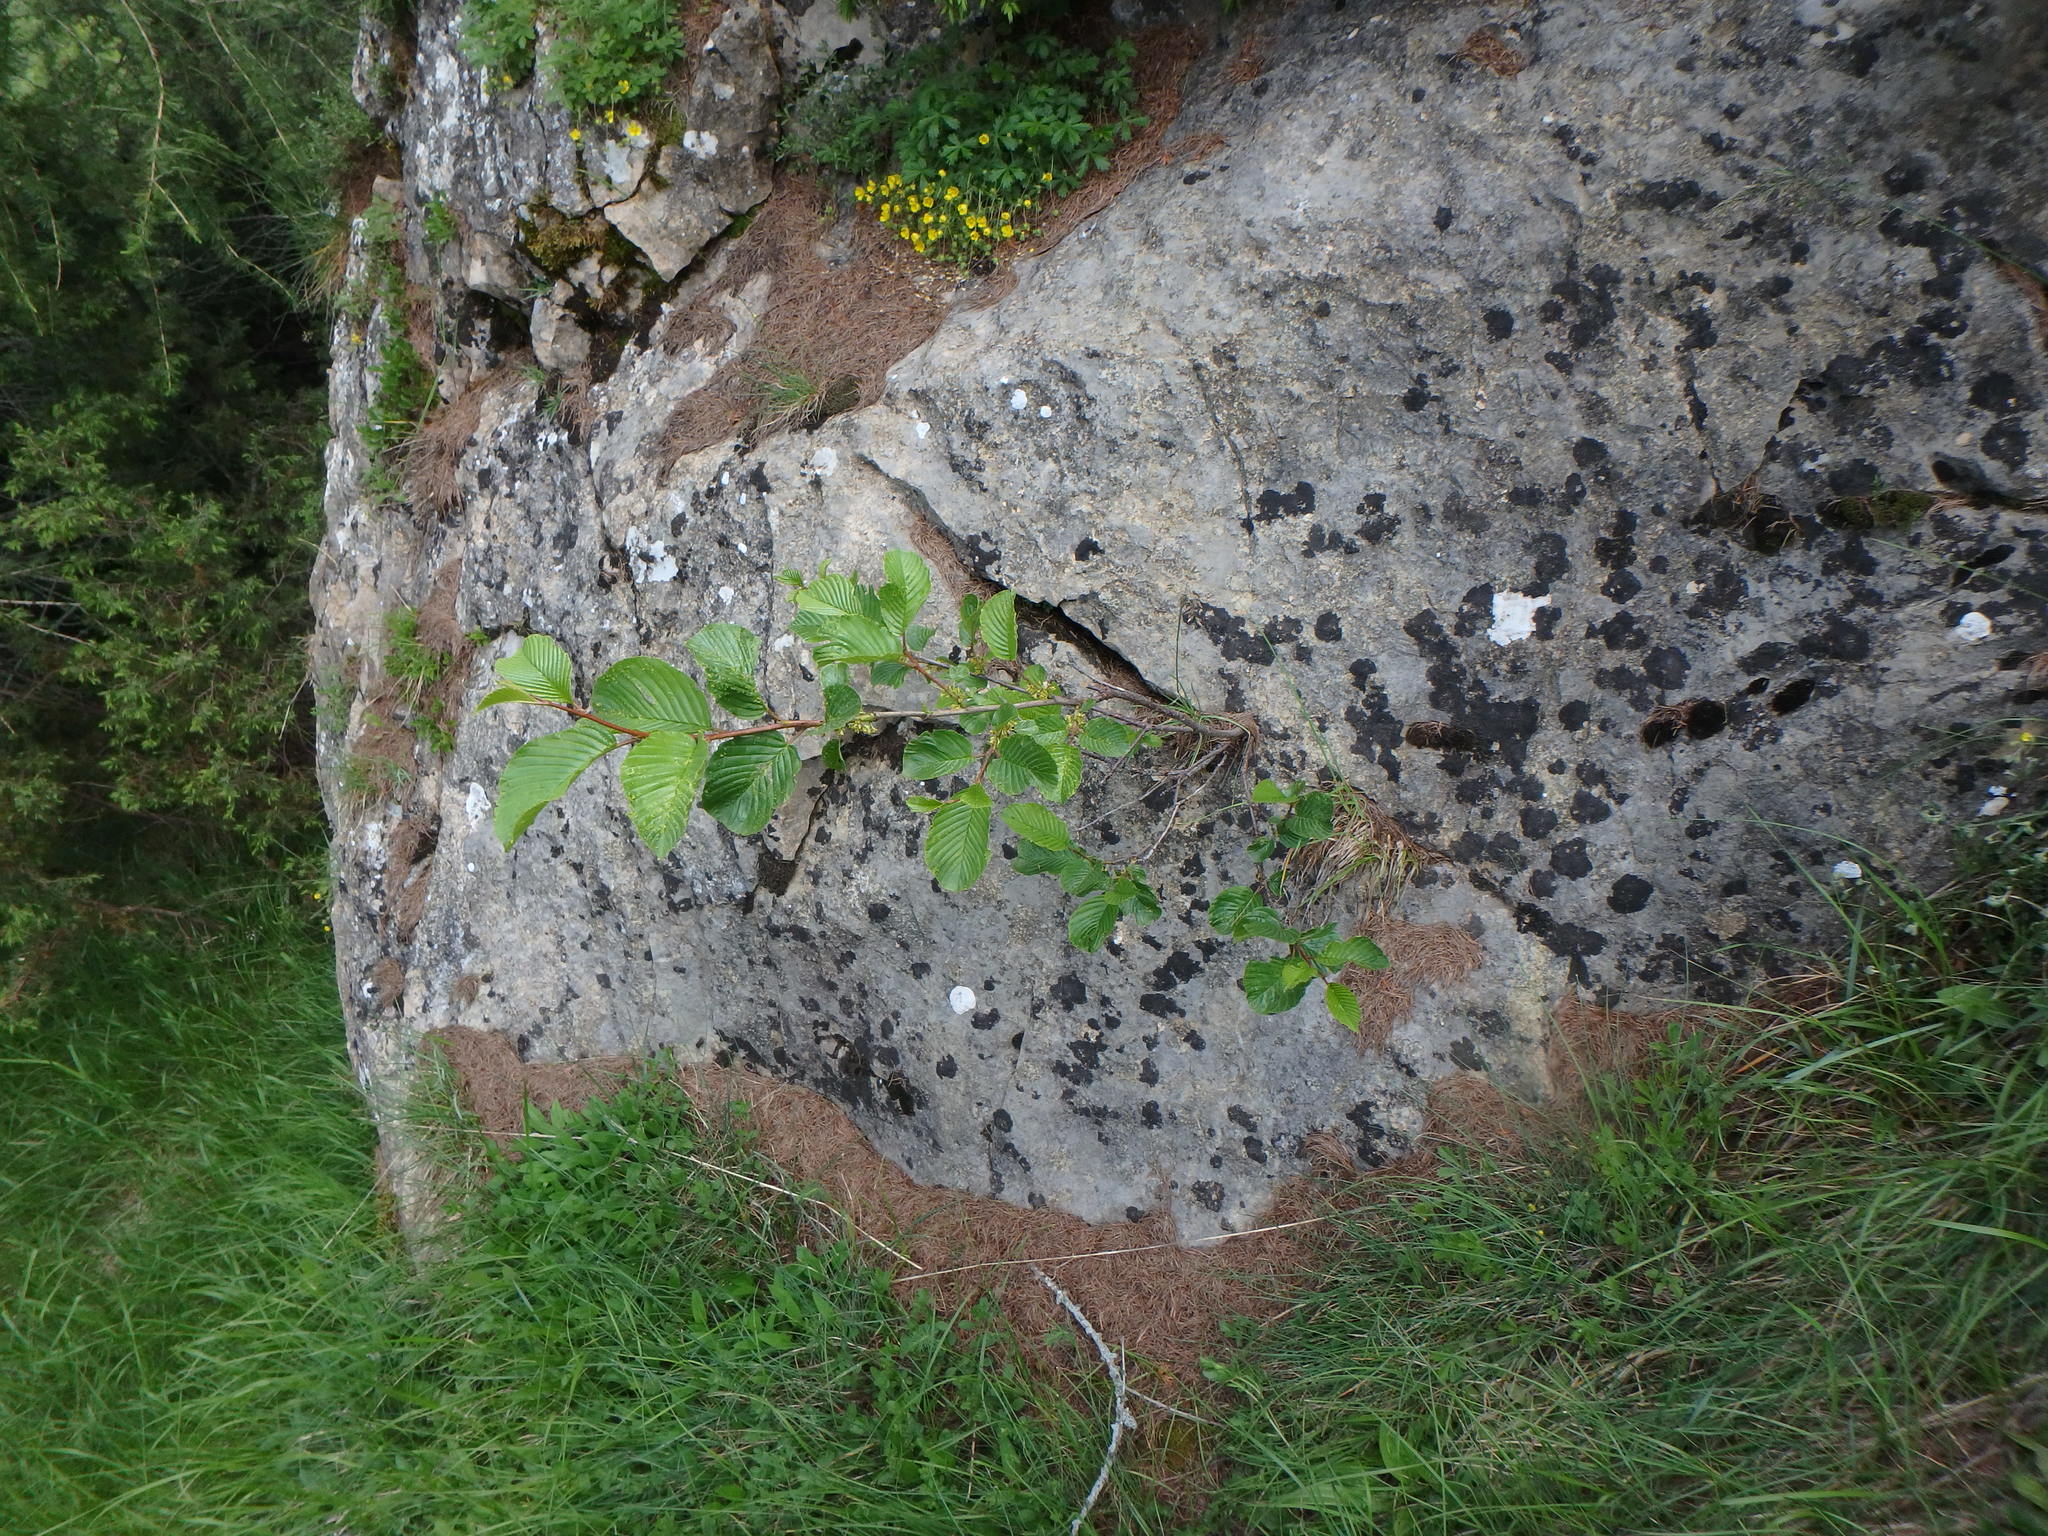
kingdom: Plantae
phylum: Tracheophyta
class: Magnoliopsida
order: Rosales
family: Rhamnaceae
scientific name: Rhamnaceae
